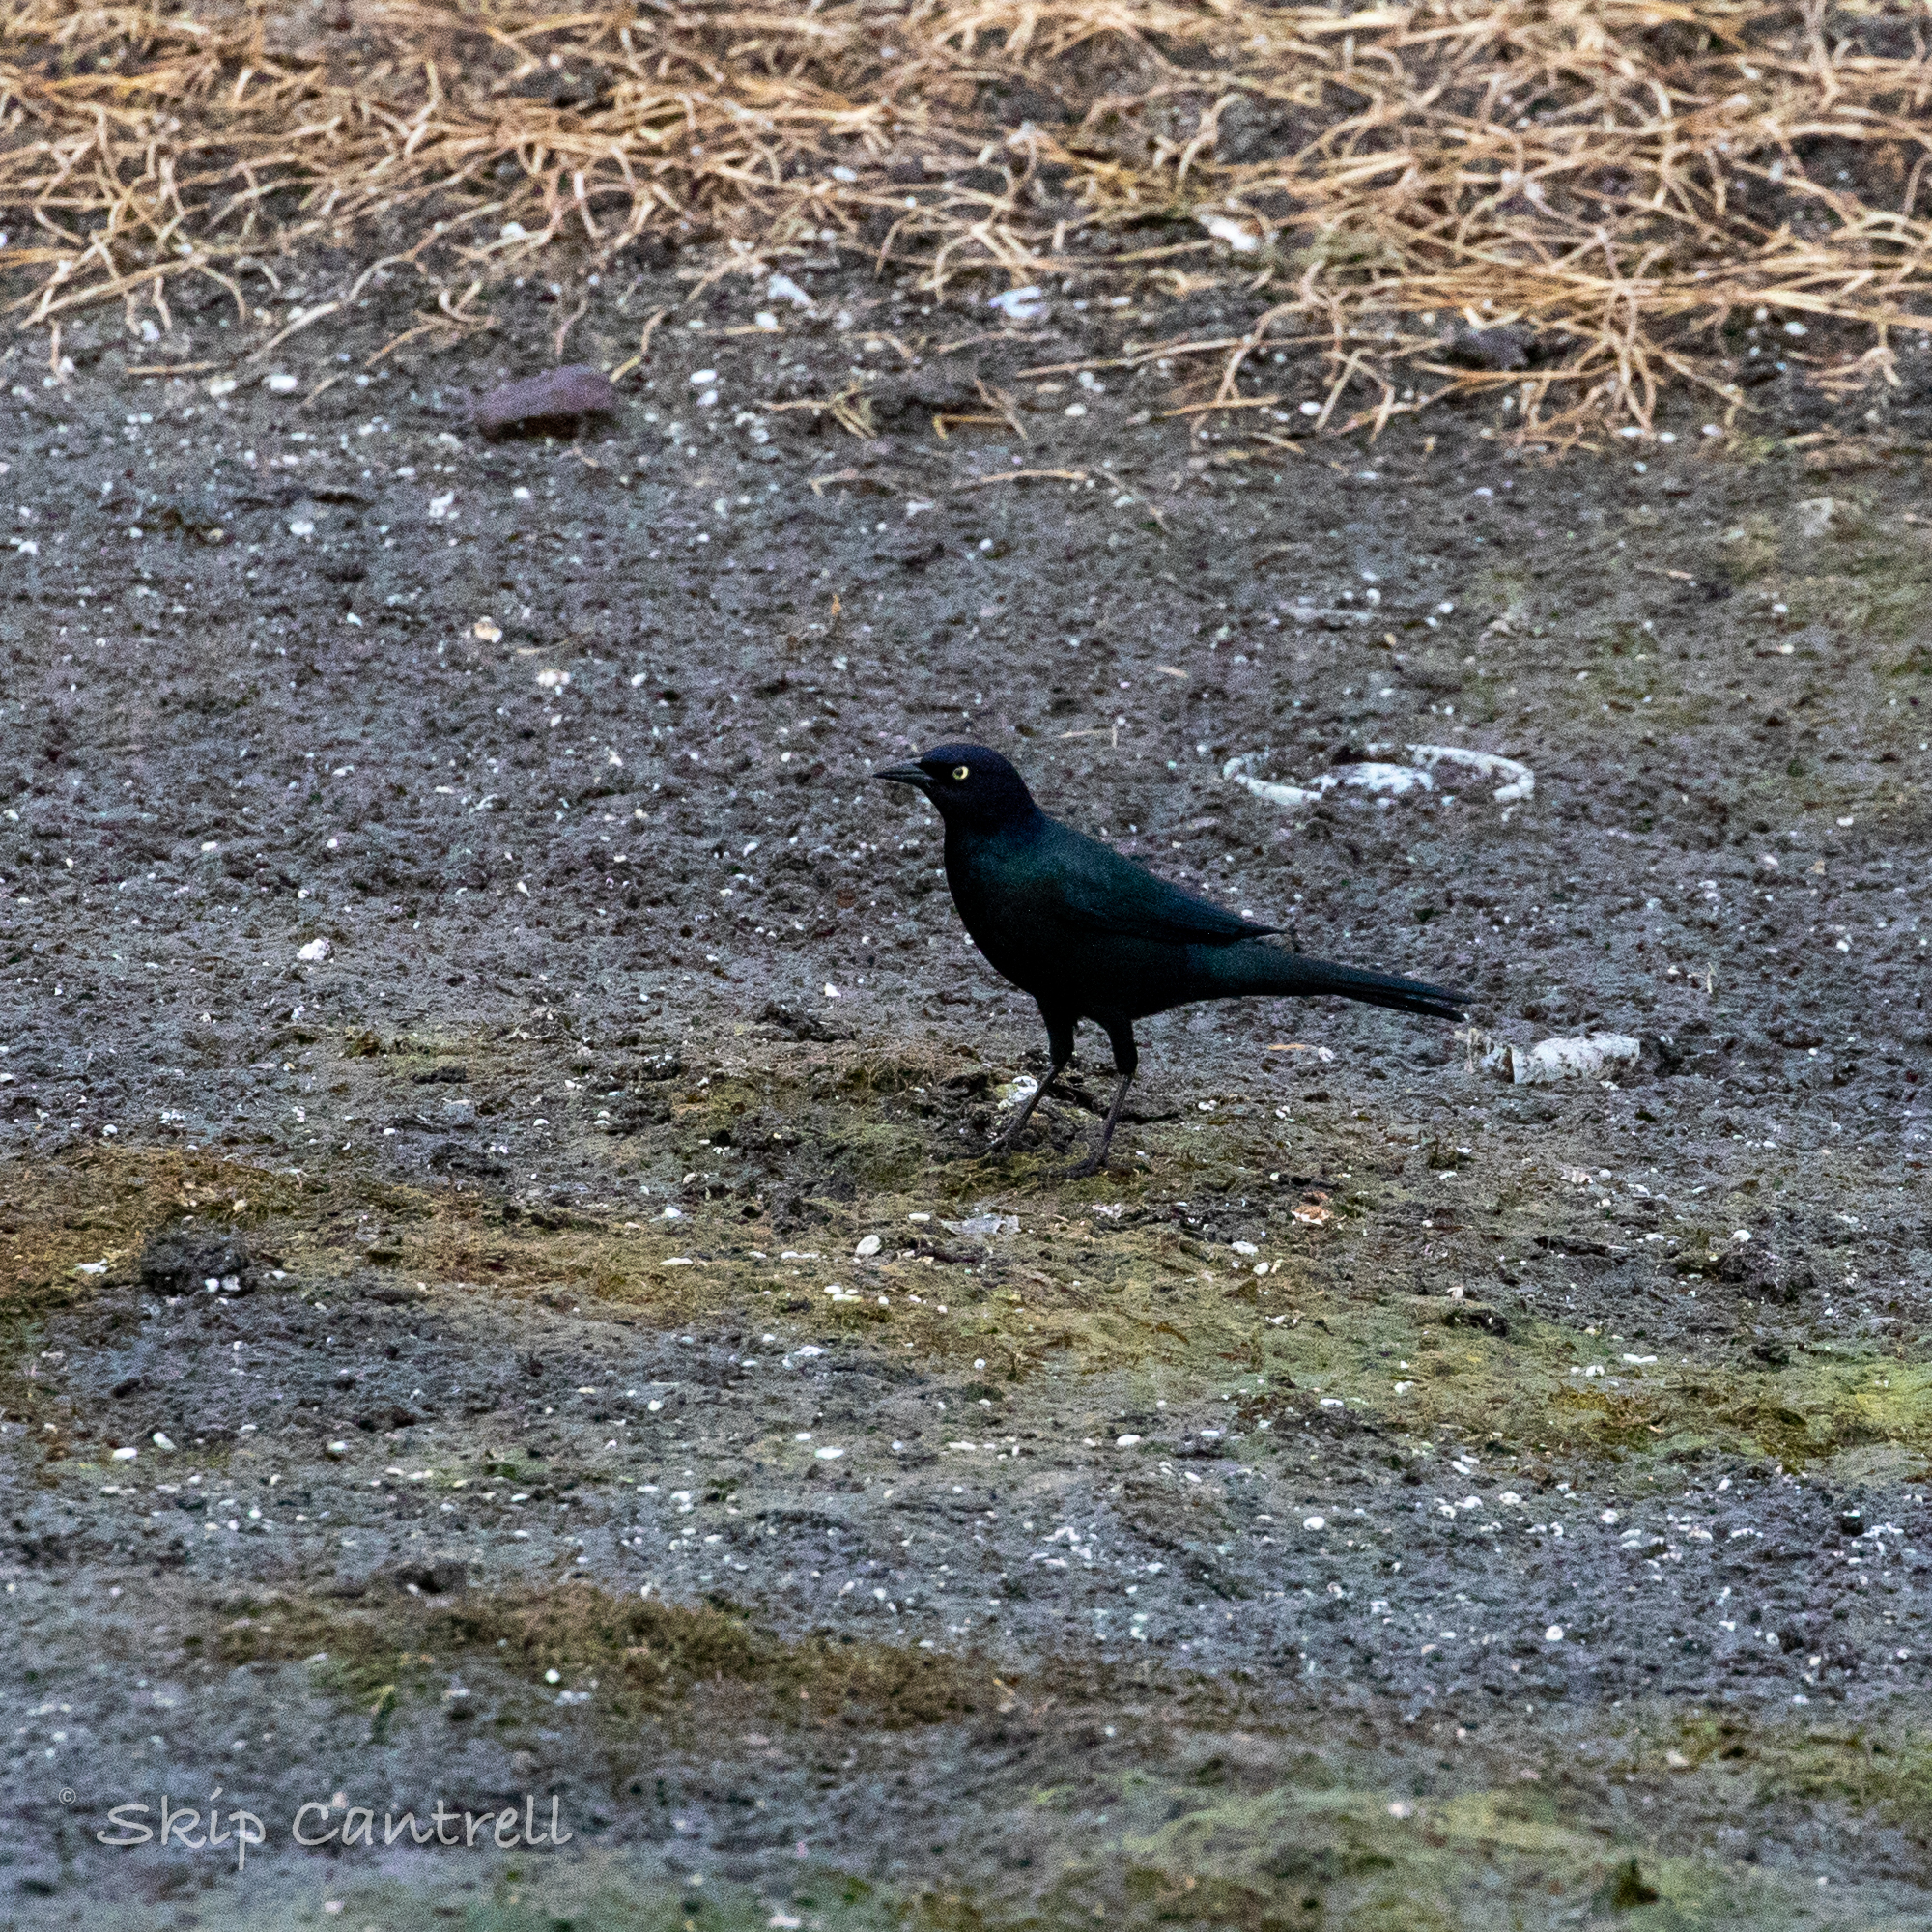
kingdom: Animalia
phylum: Chordata
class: Aves
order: Passeriformes
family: Icteridae
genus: Euphagus
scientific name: Euphagus cyanocephalus
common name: Brewer's blackbird
